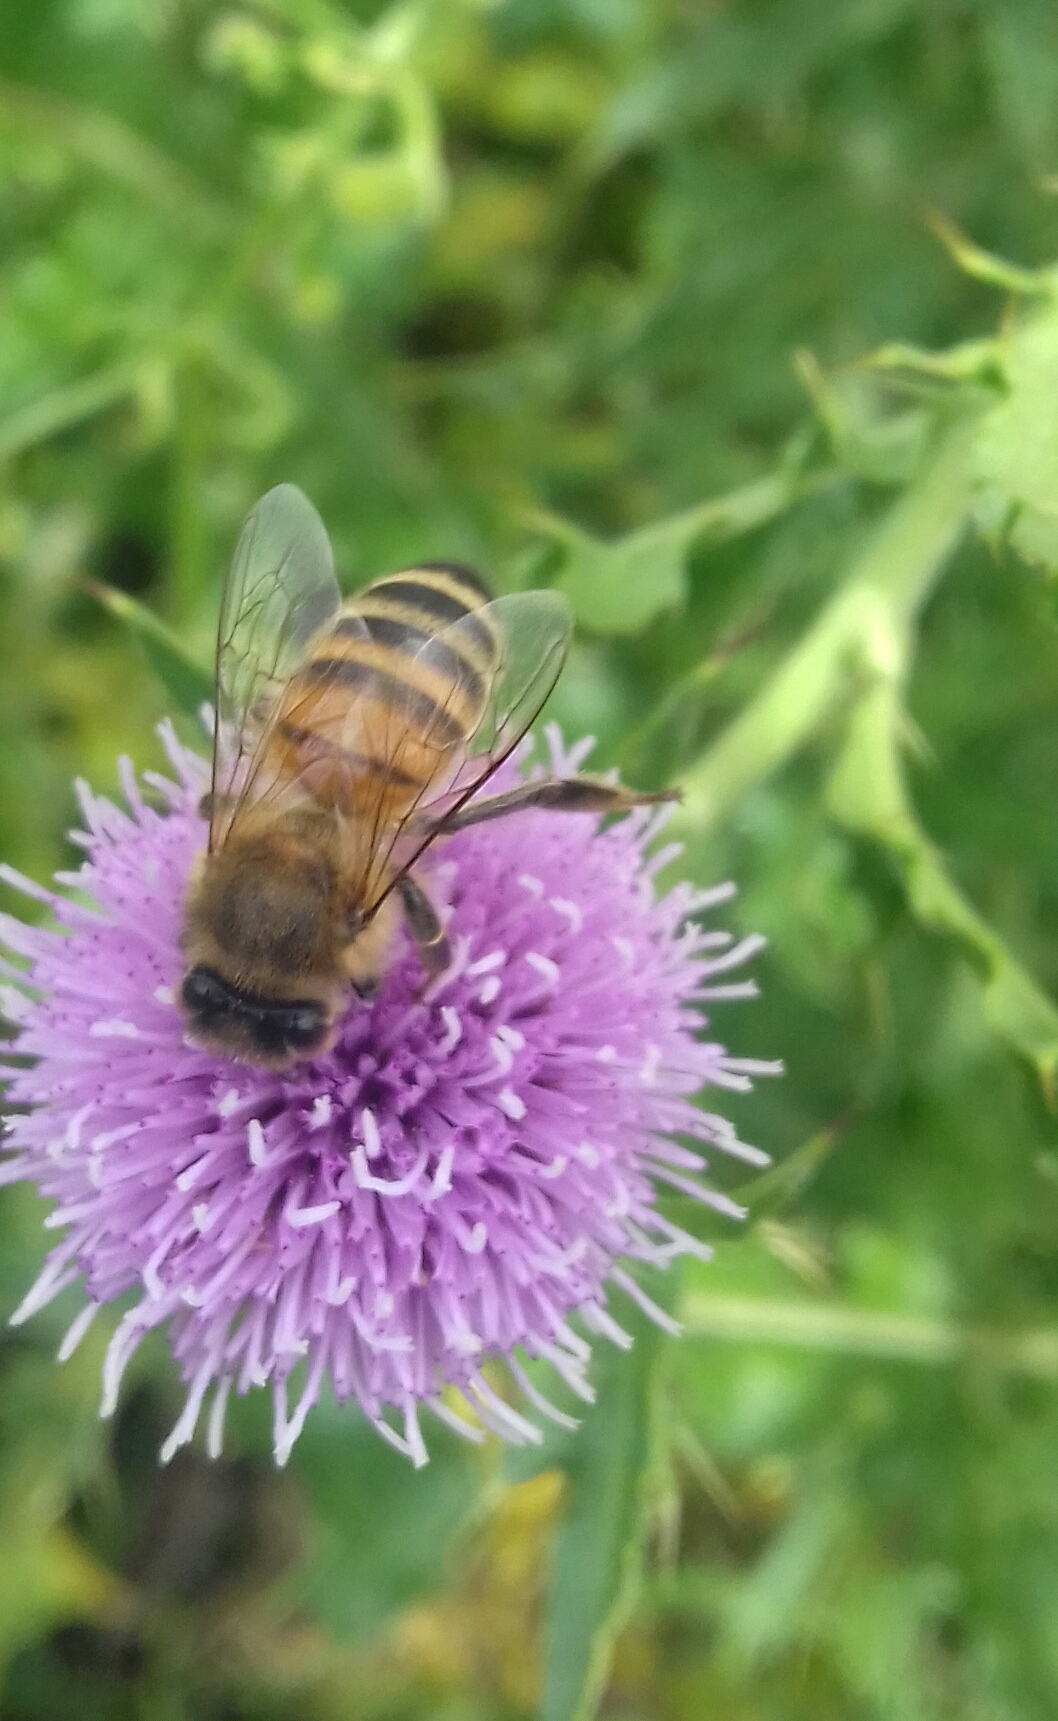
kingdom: Animalia
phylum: Arthropoda
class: Insecta
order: Hymenoptera
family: Apidae
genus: Apis
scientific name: Apis mellifera
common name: Honey bee
